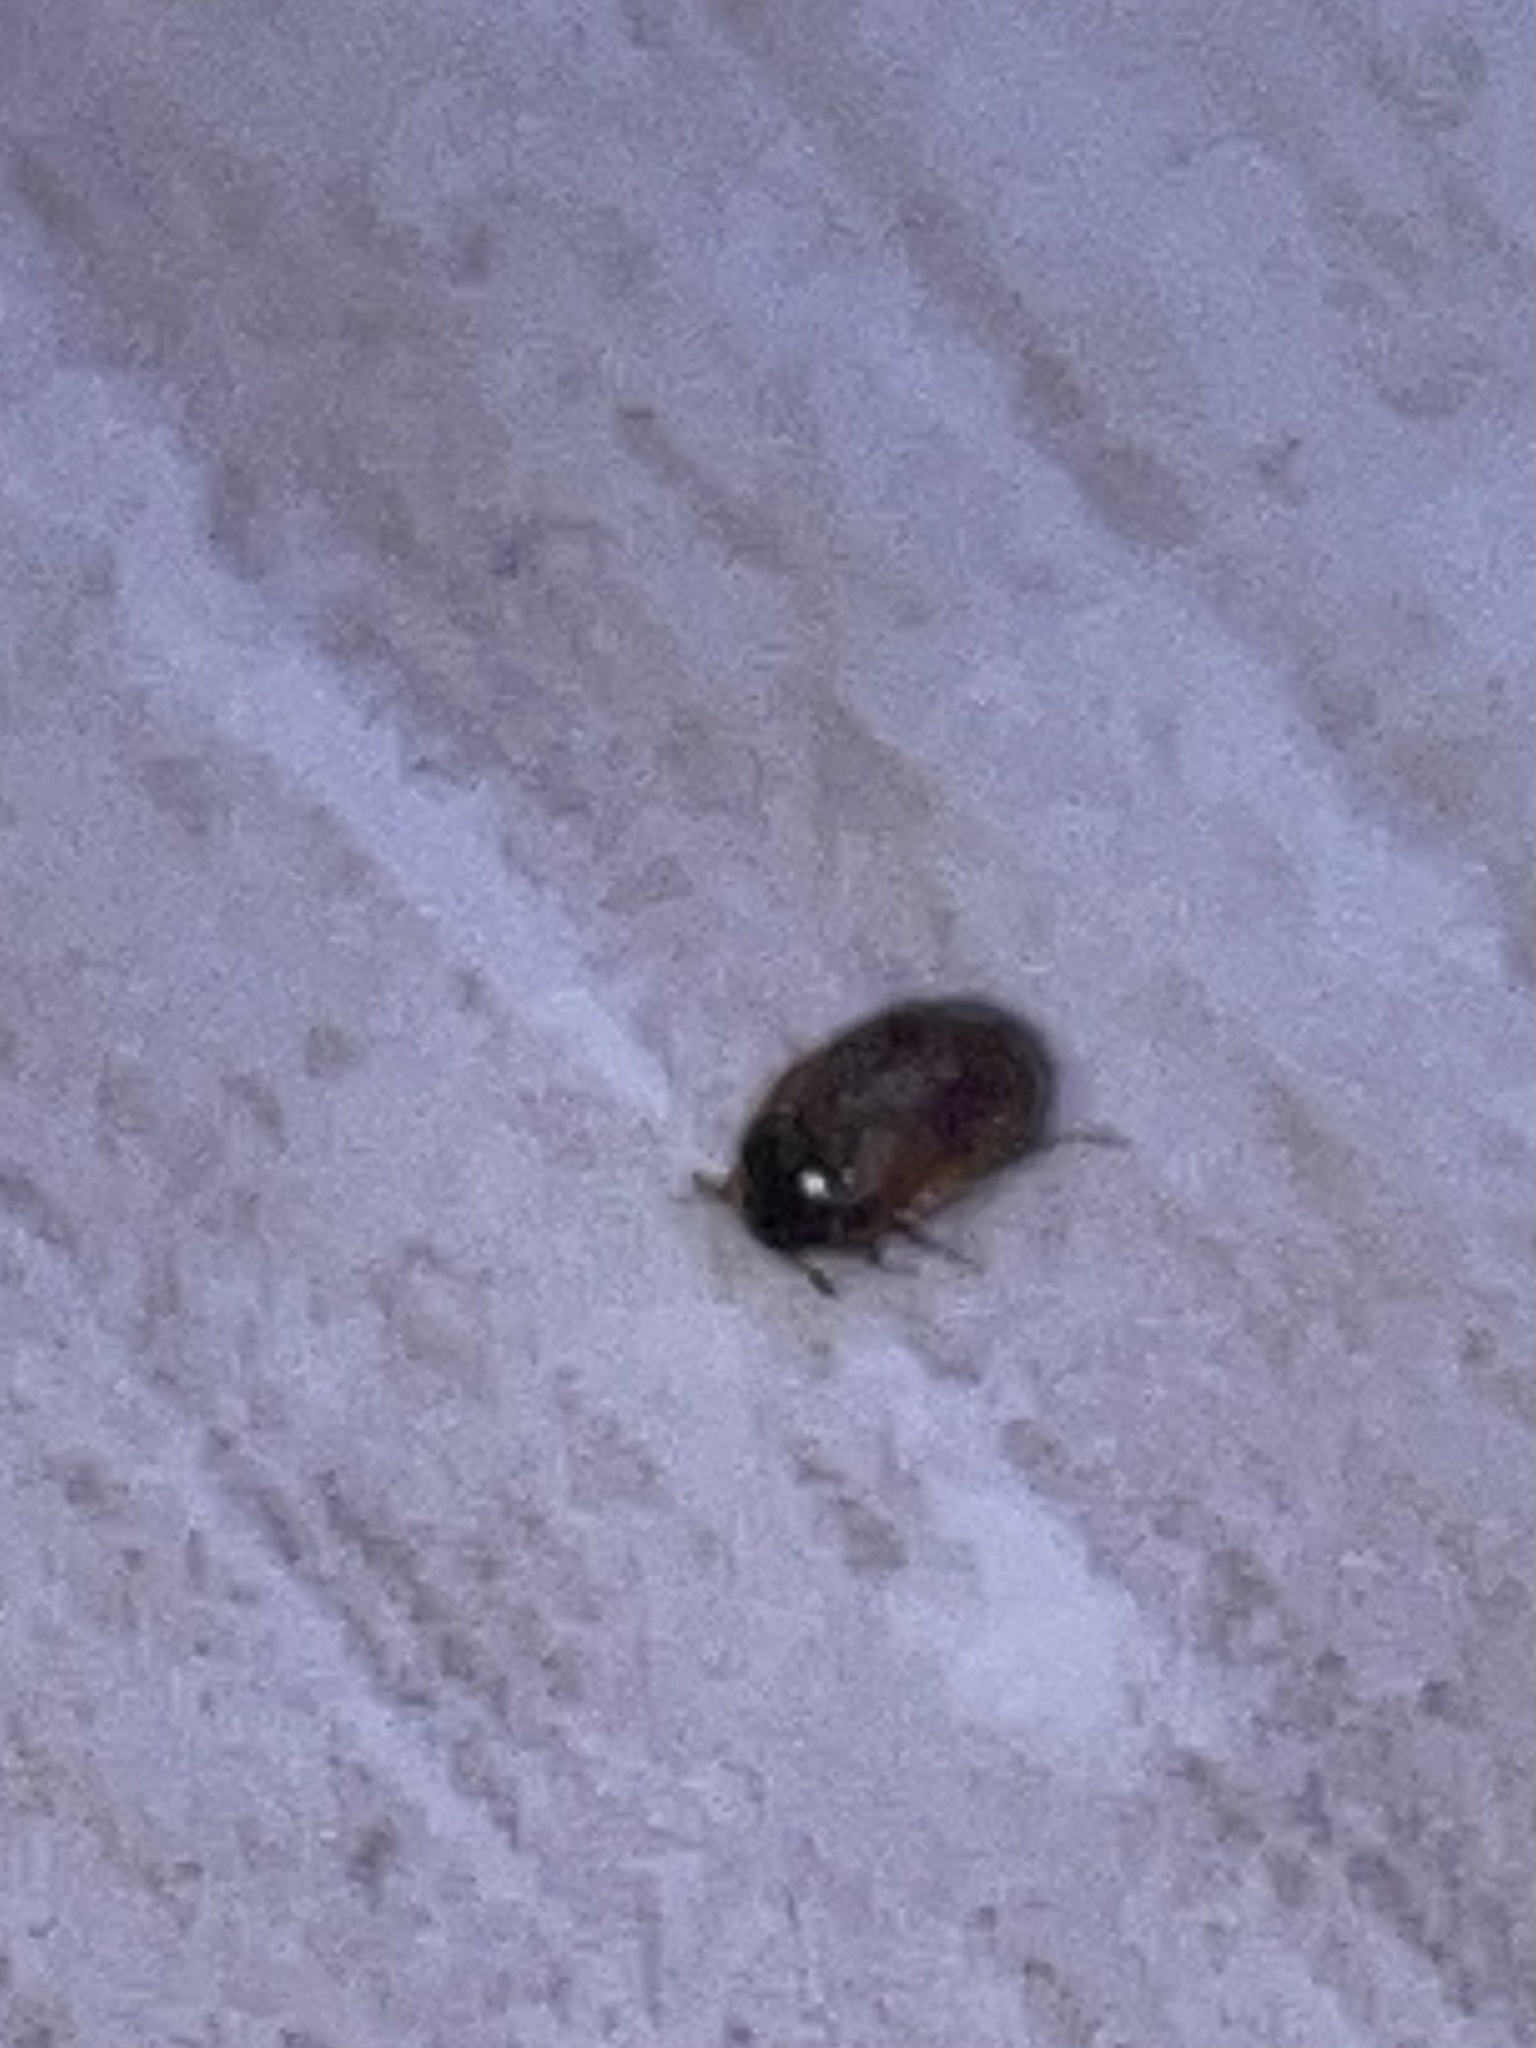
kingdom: Animalia
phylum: Arthropoda
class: Insecta
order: Coleoptera
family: Dermestidae
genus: Attagenus
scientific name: Attagenus smirnovi
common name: Brown carpet beetle
